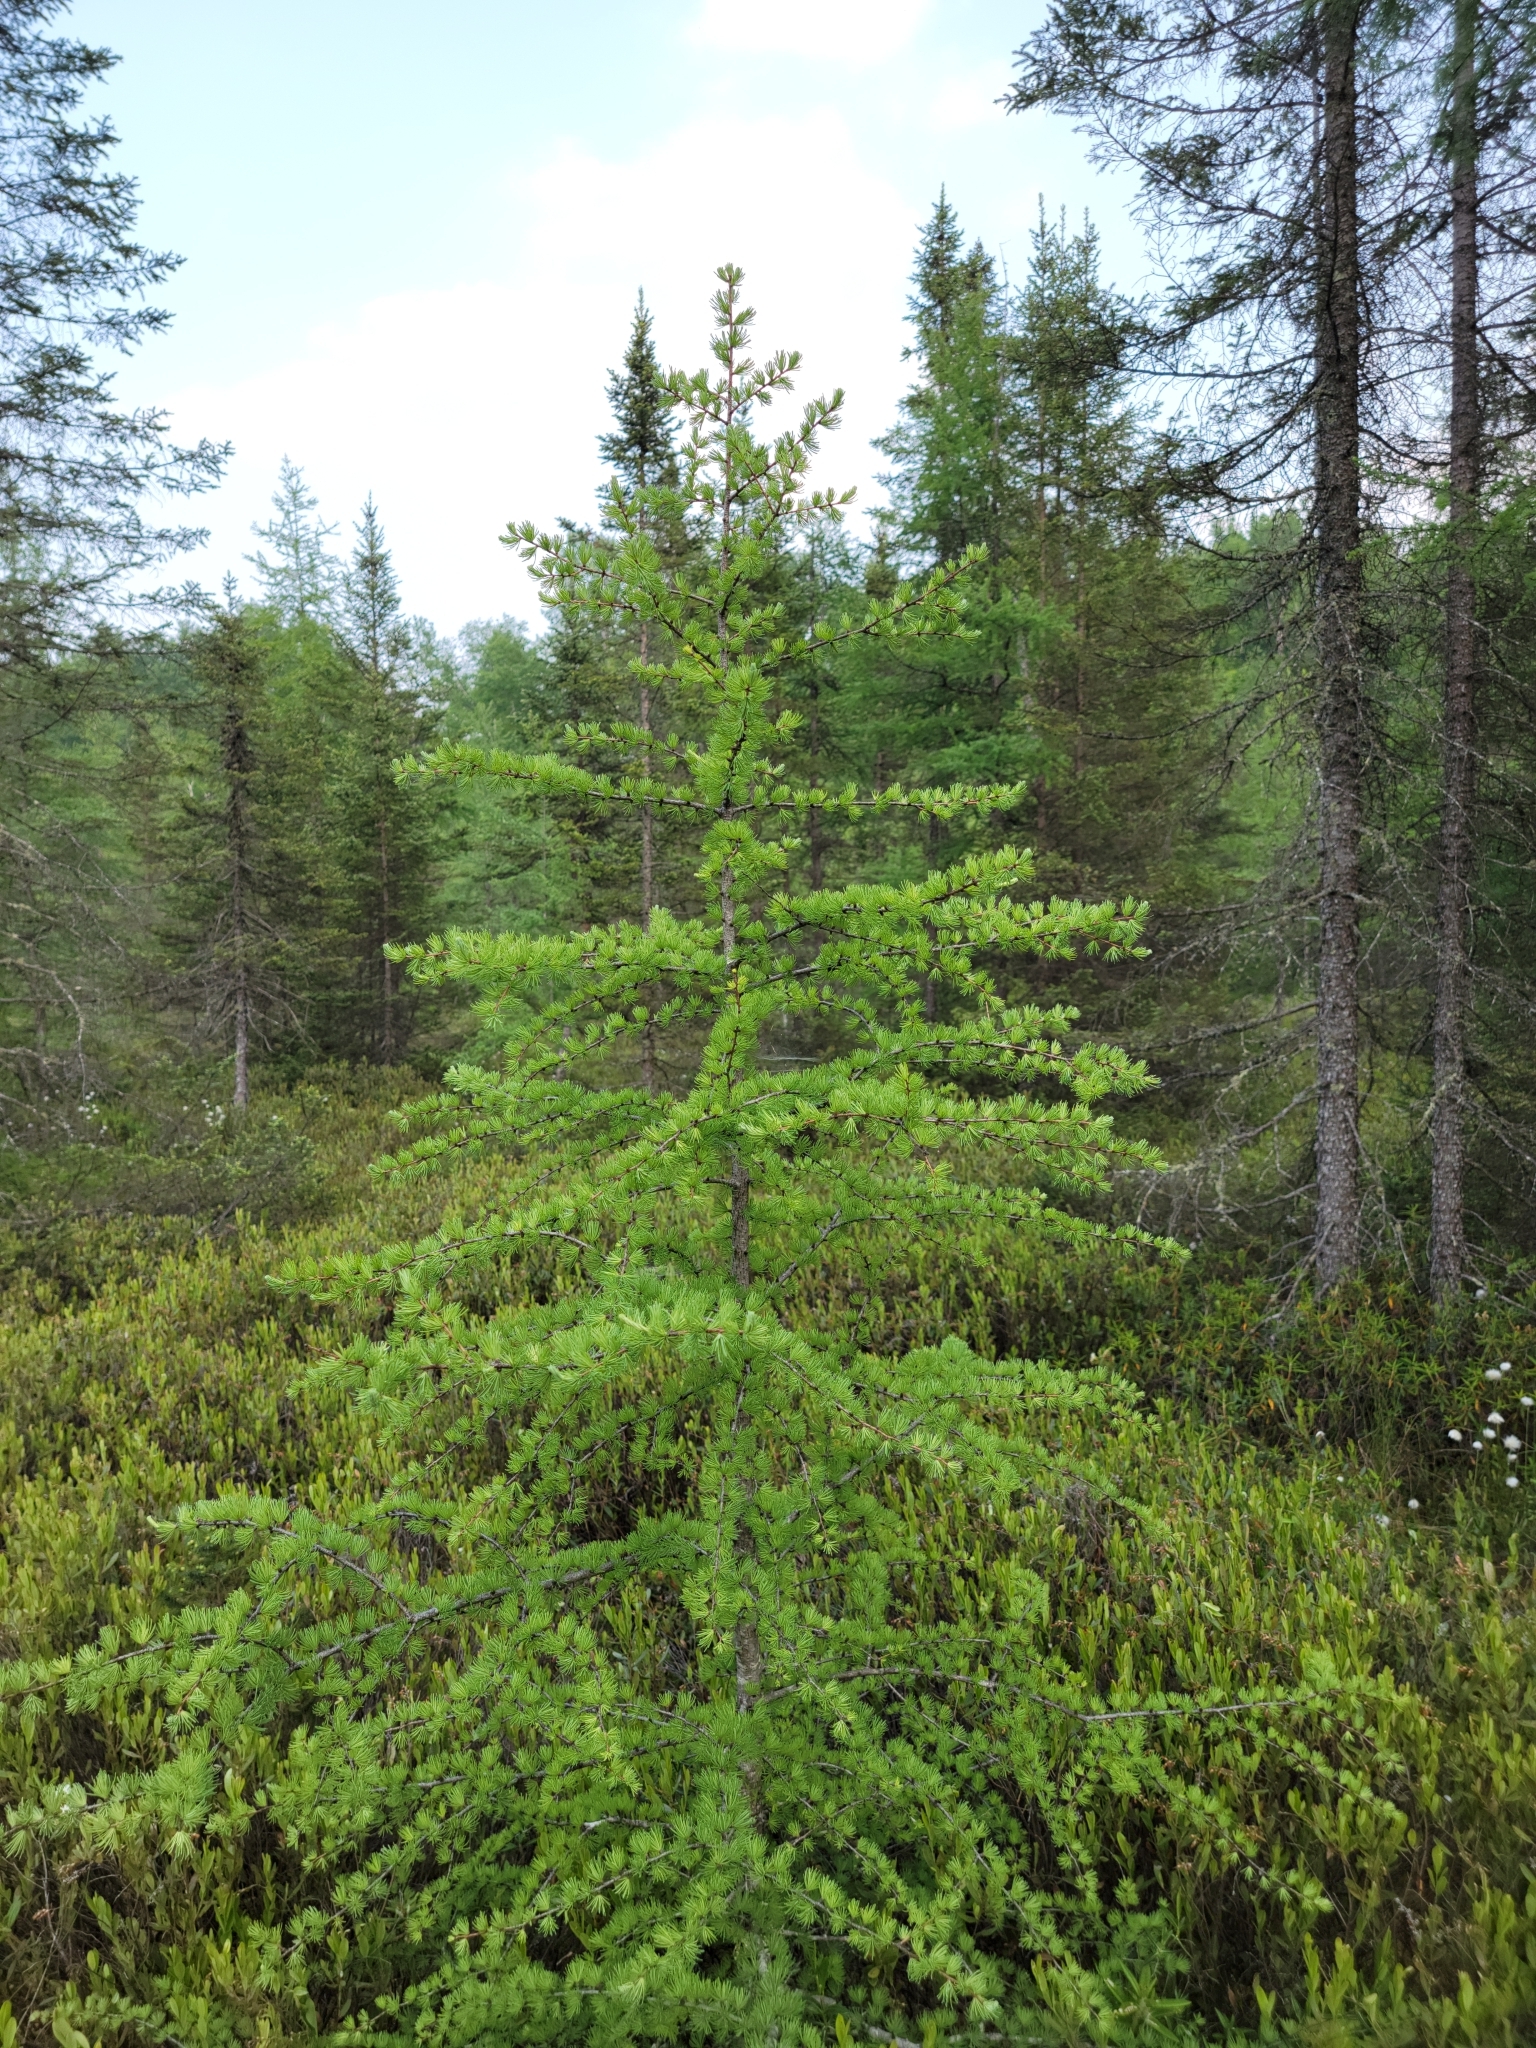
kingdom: Plantae
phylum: Tracheophyta
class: Pinopsida
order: Pinales
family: Pinaceae
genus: Larix
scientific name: Larix laricina
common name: American larch
